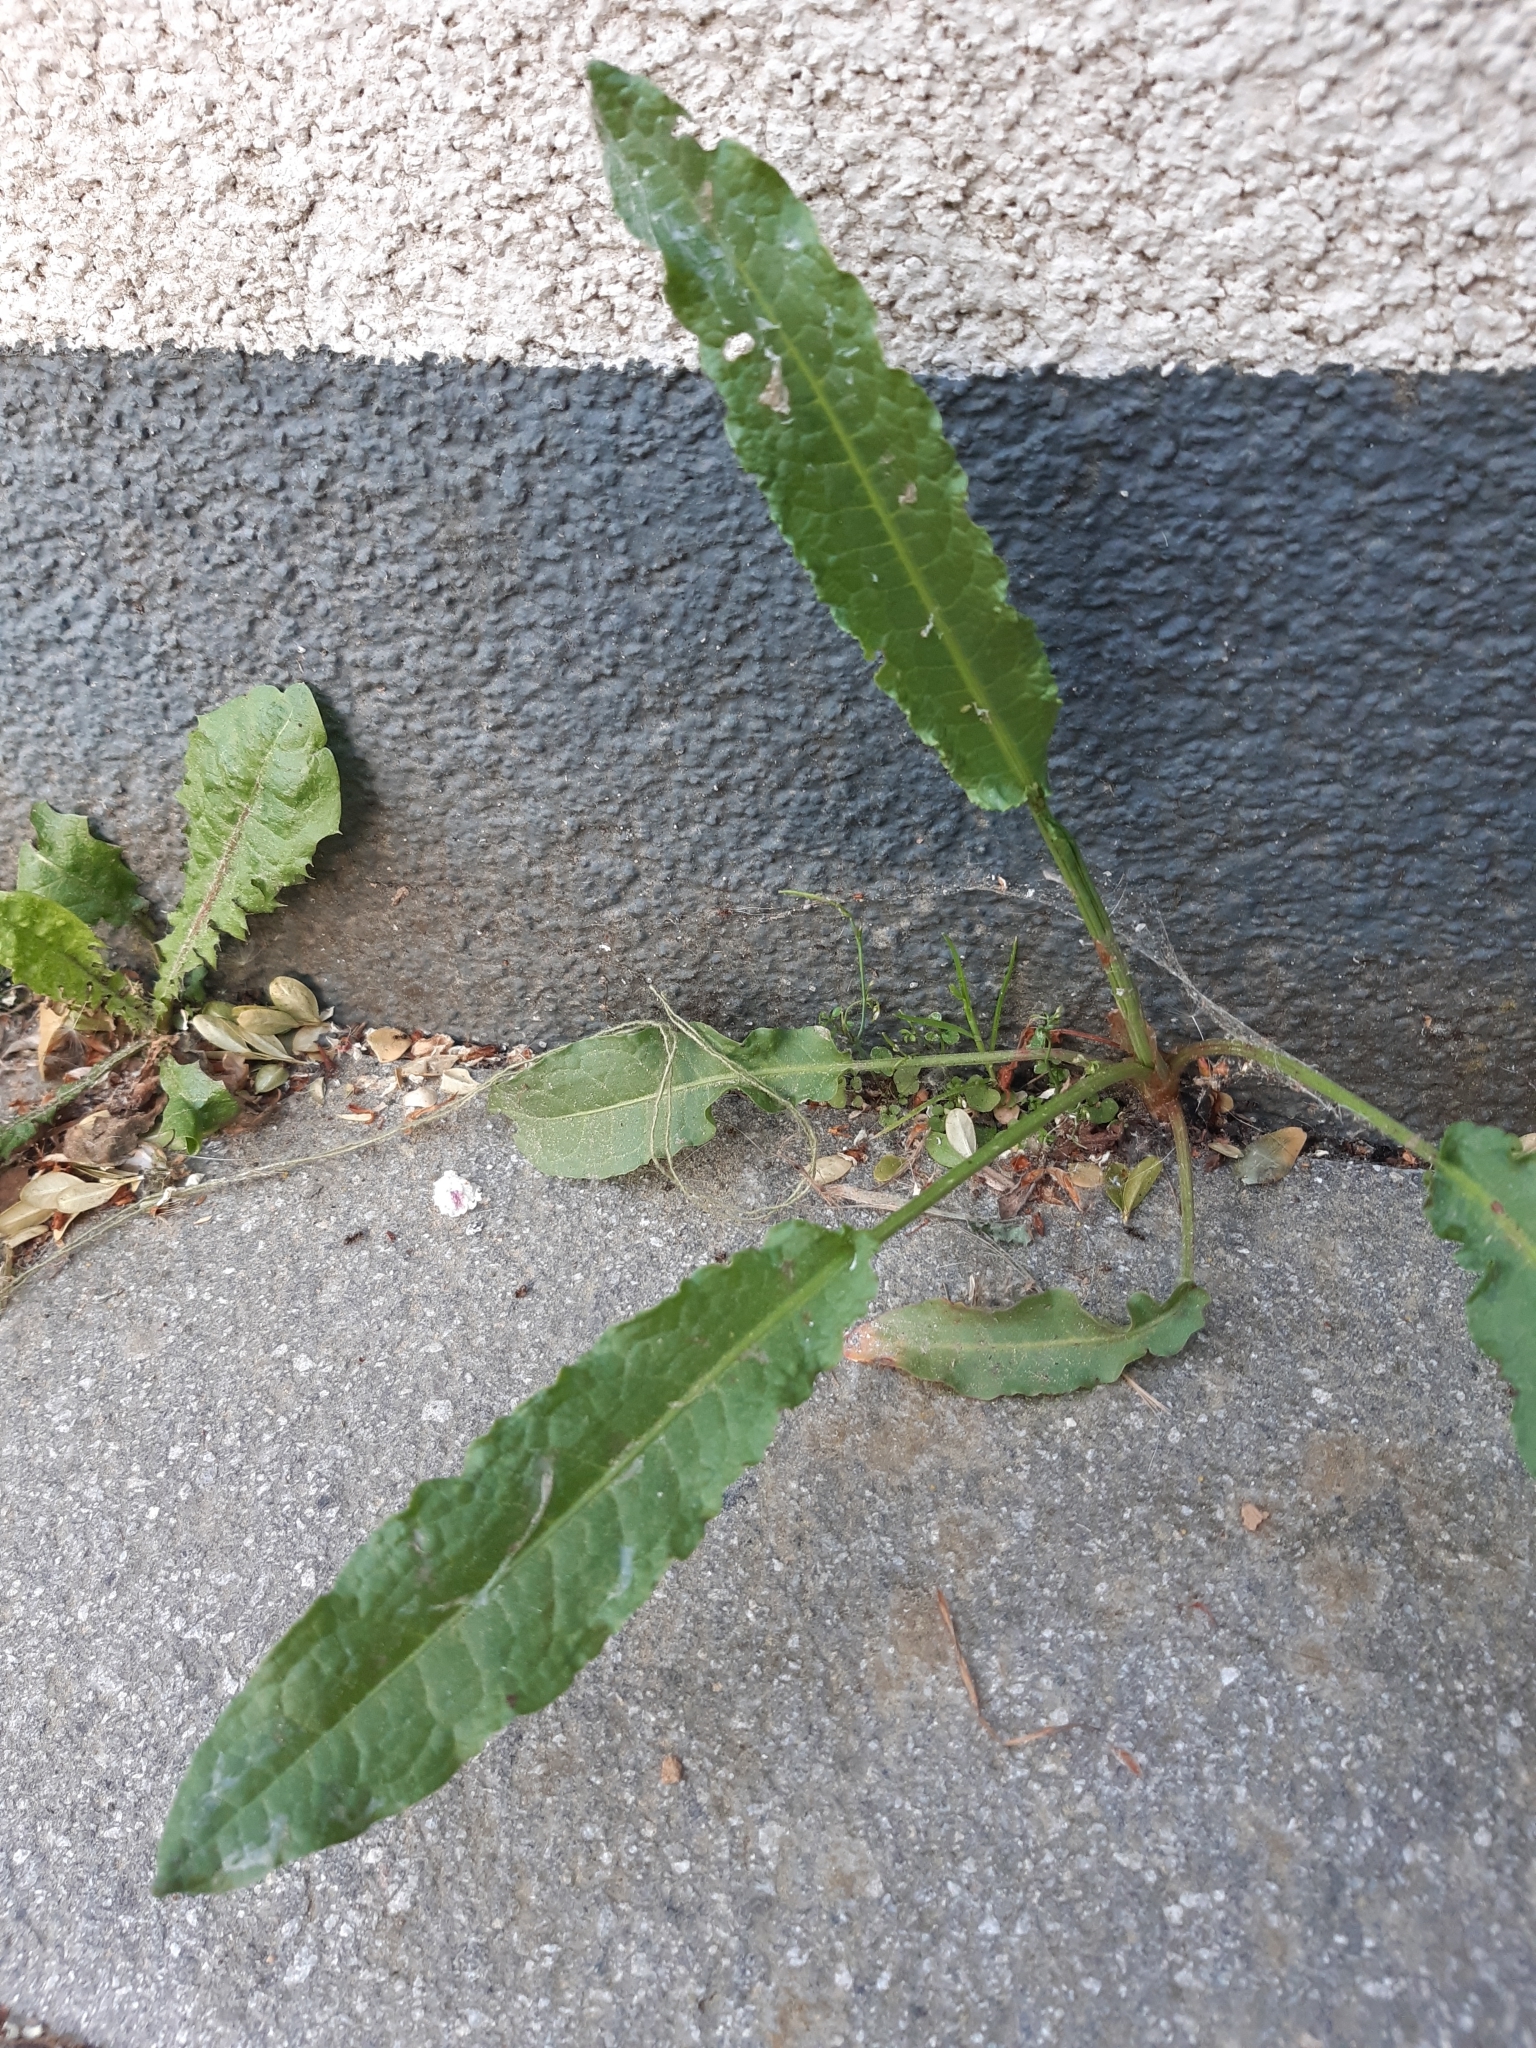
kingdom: Plantae
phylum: Tracheophyta
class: Magnoliopsida
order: Caryophyllales
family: Polygonaceae
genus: Rumex
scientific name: Rumex crispus
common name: Curled dock
